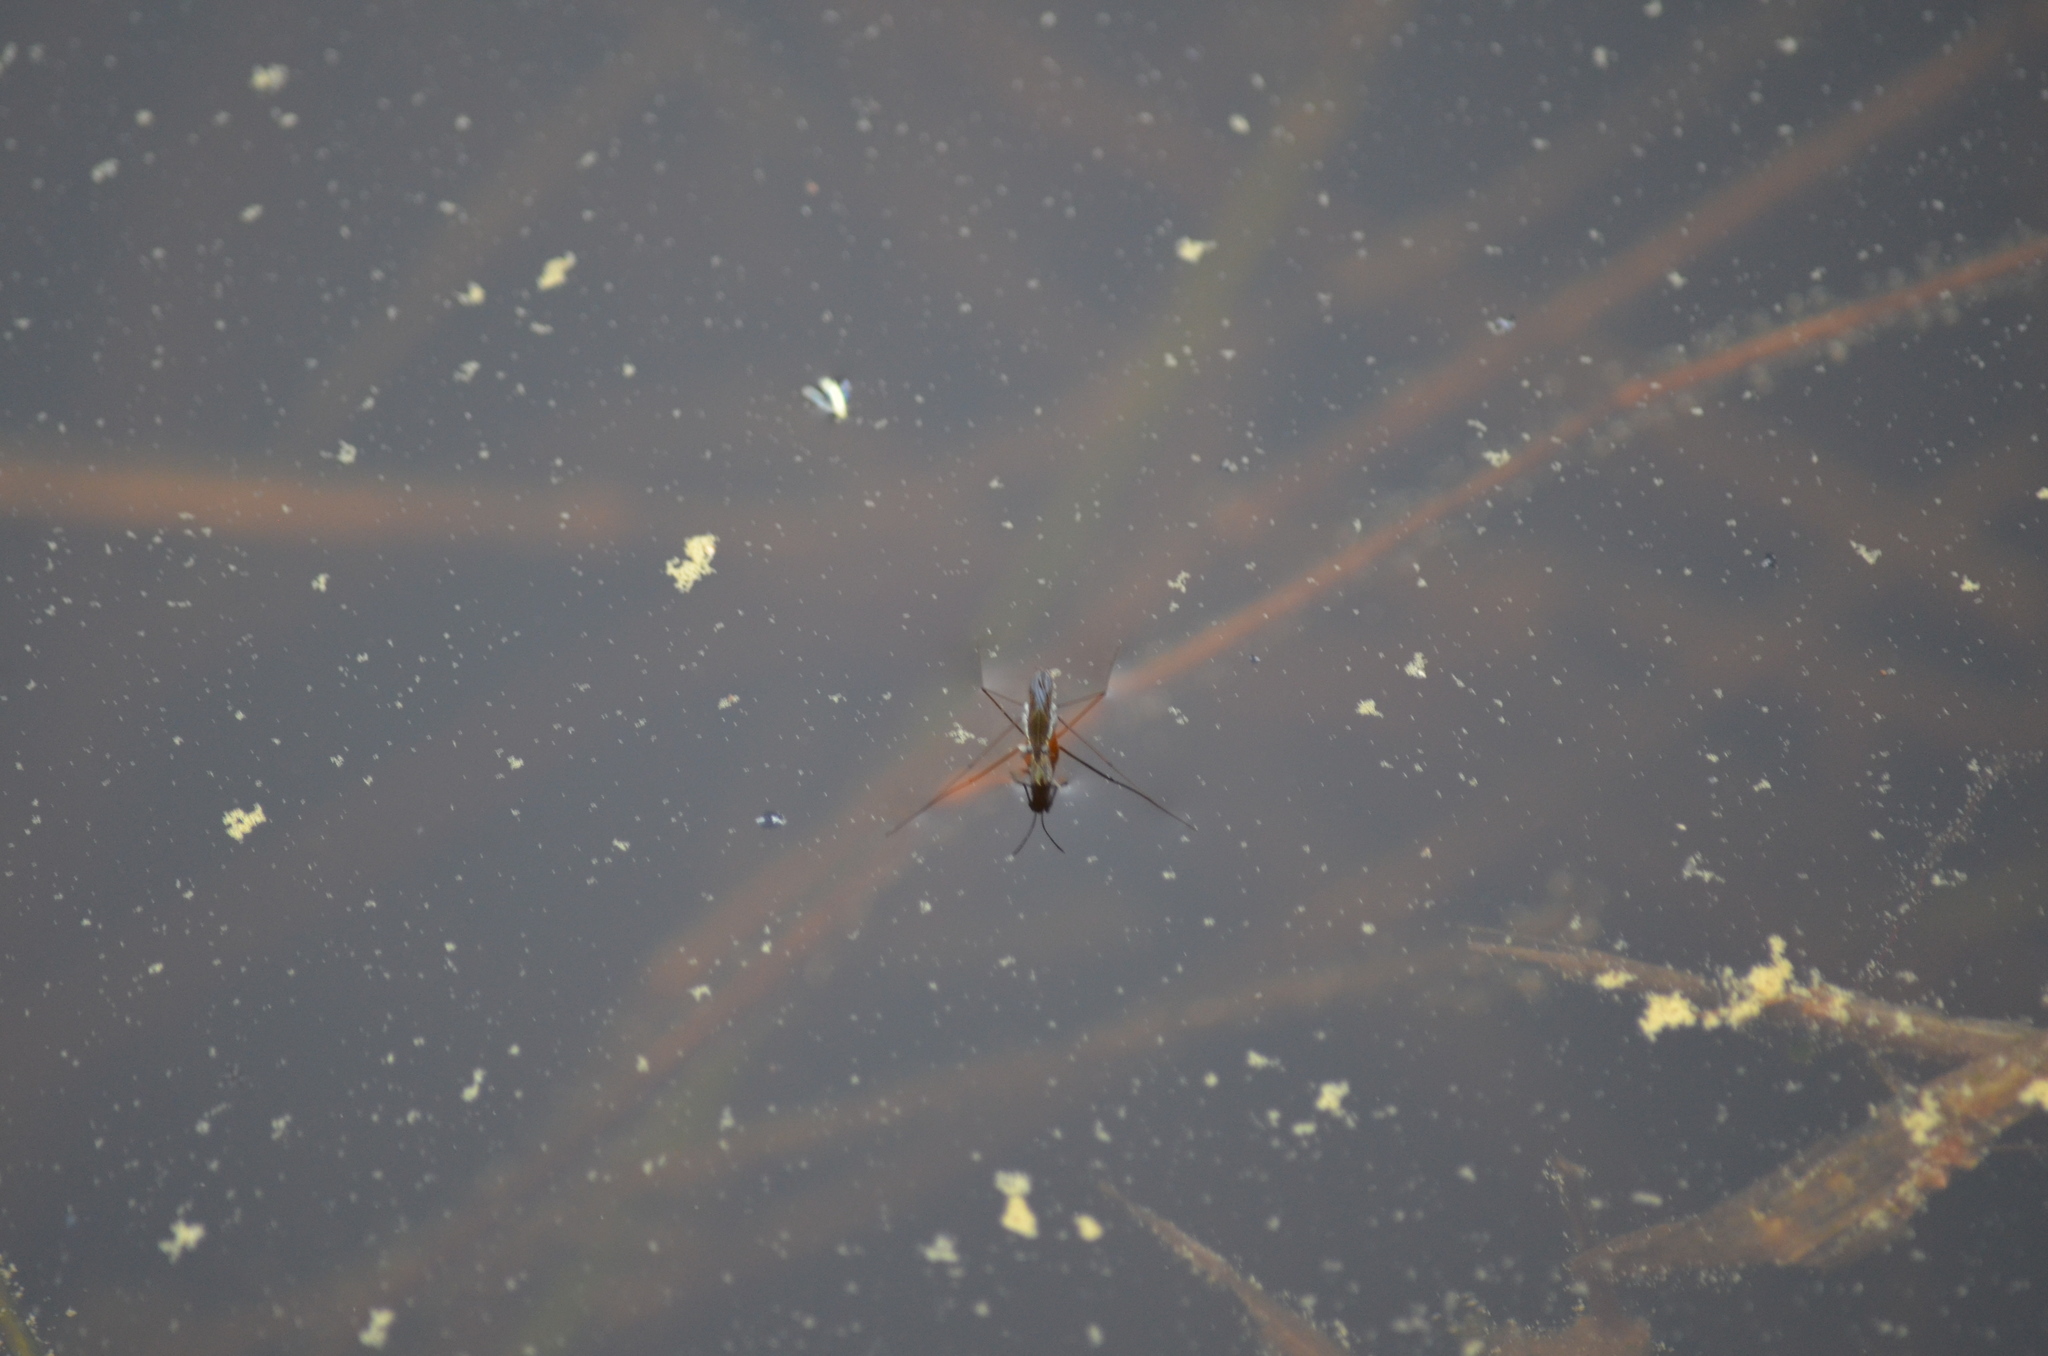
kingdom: Animalia
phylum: Arthropoda
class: Insecta
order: Hemiptera
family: Gerridae
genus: Gerris
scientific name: Gerris
